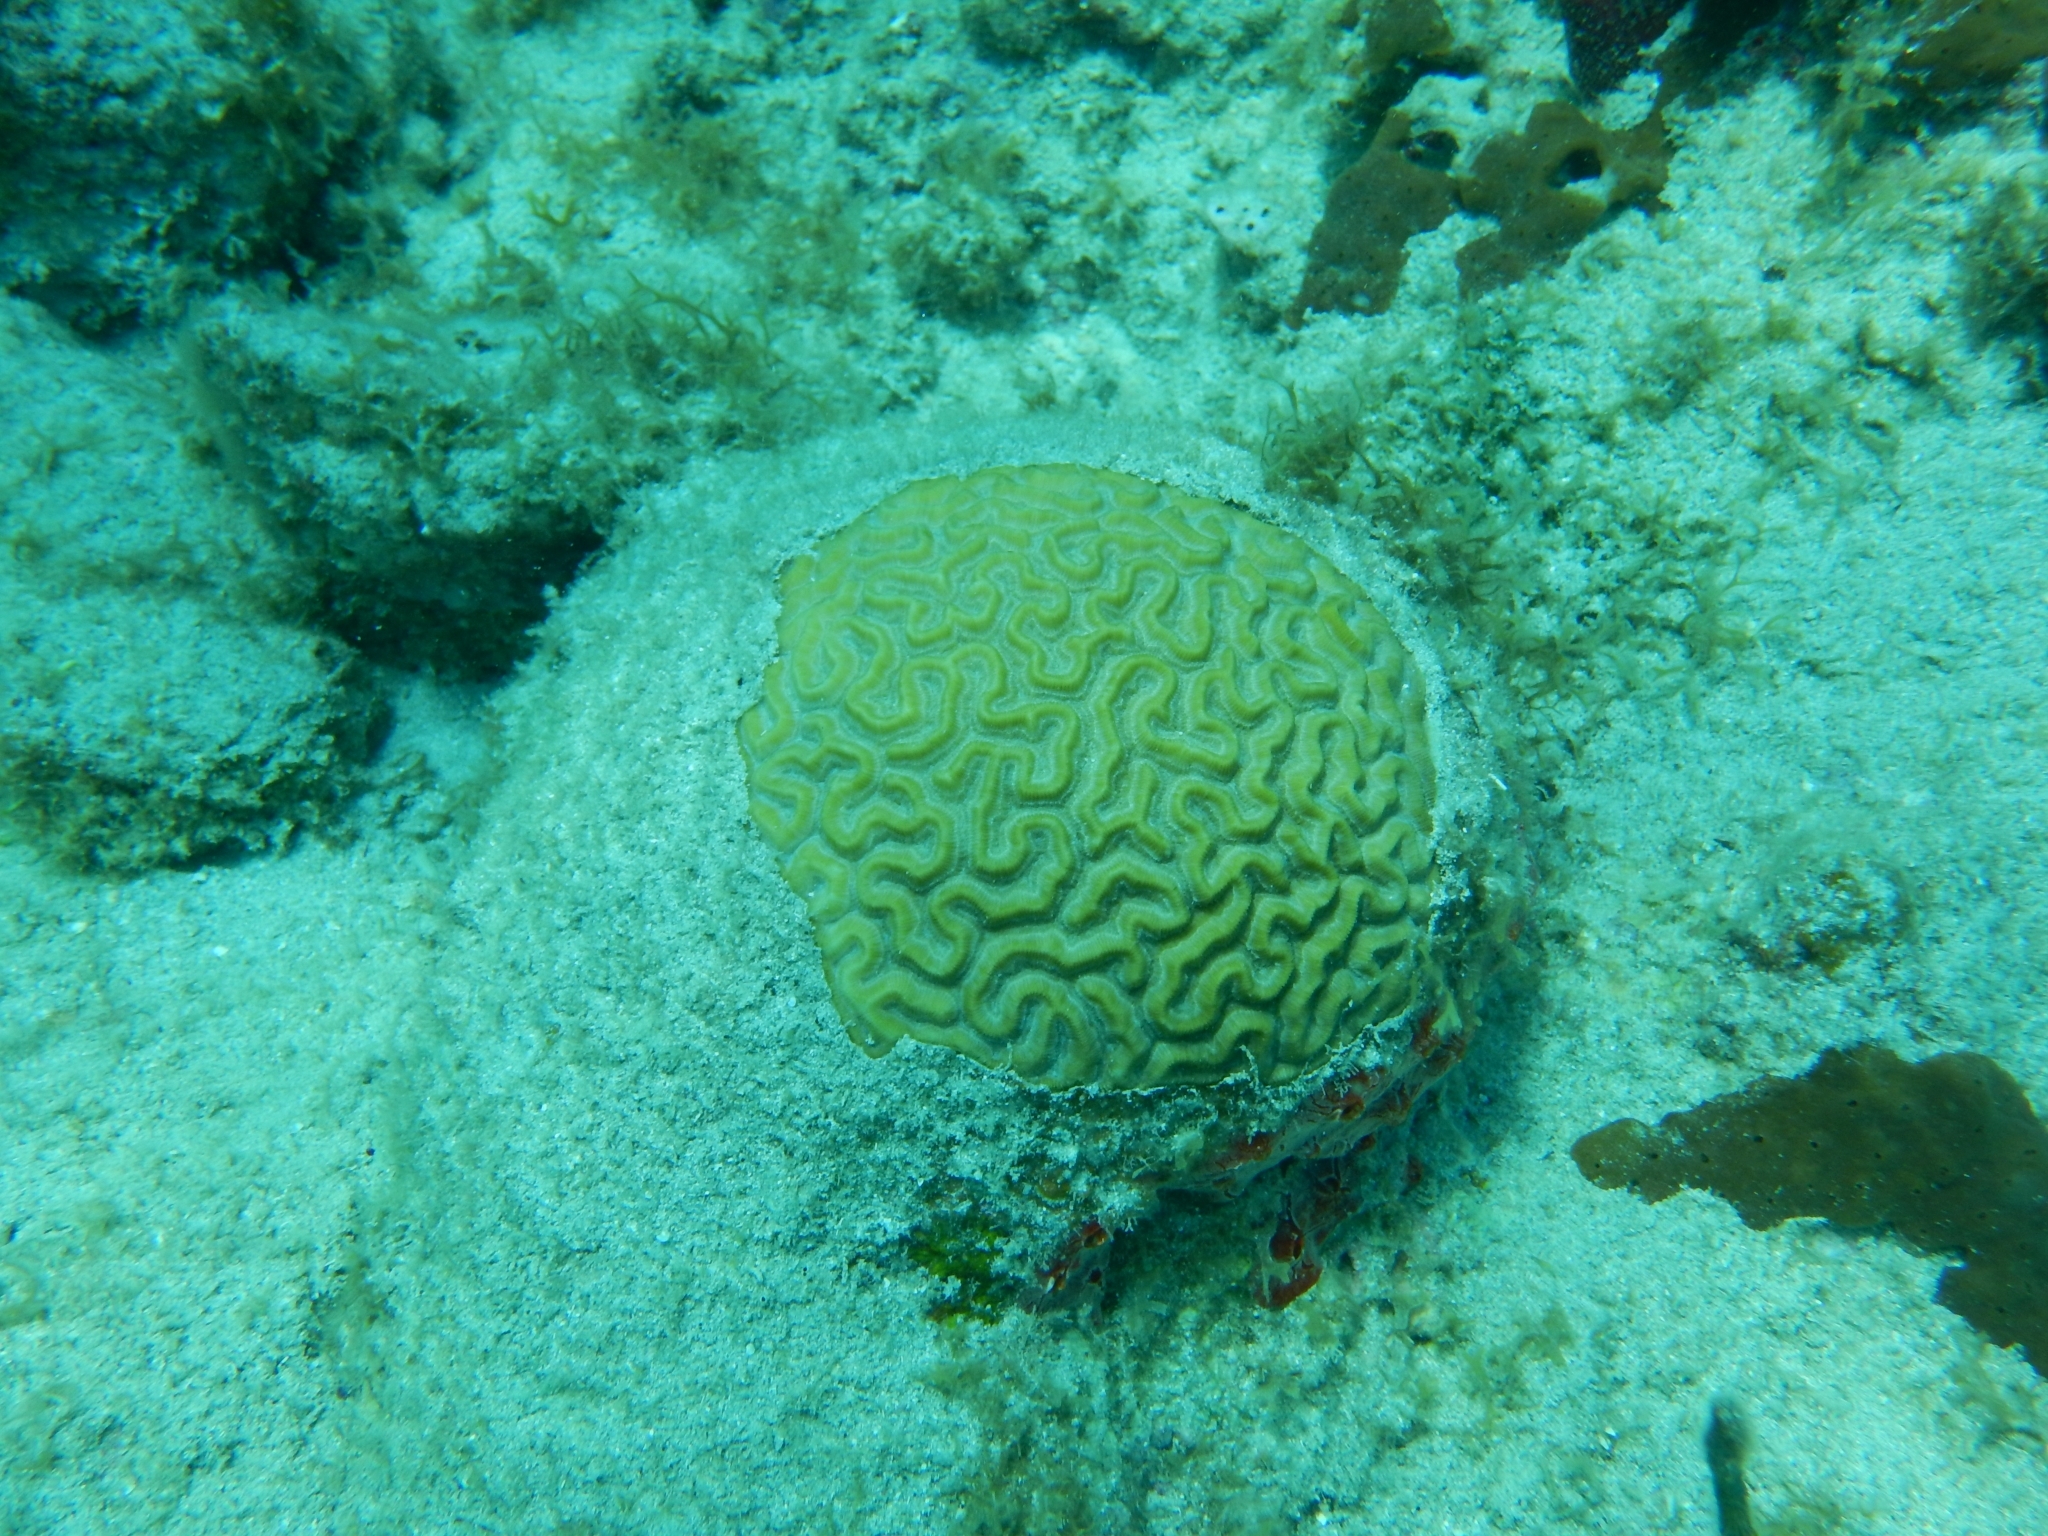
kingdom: Animalia
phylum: Cnidaria
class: Anthozoa
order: Scleractinia
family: Faviidae
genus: Pseudodiploria
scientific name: Pseudodiploria strigosa
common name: Symmetrical brain coral
